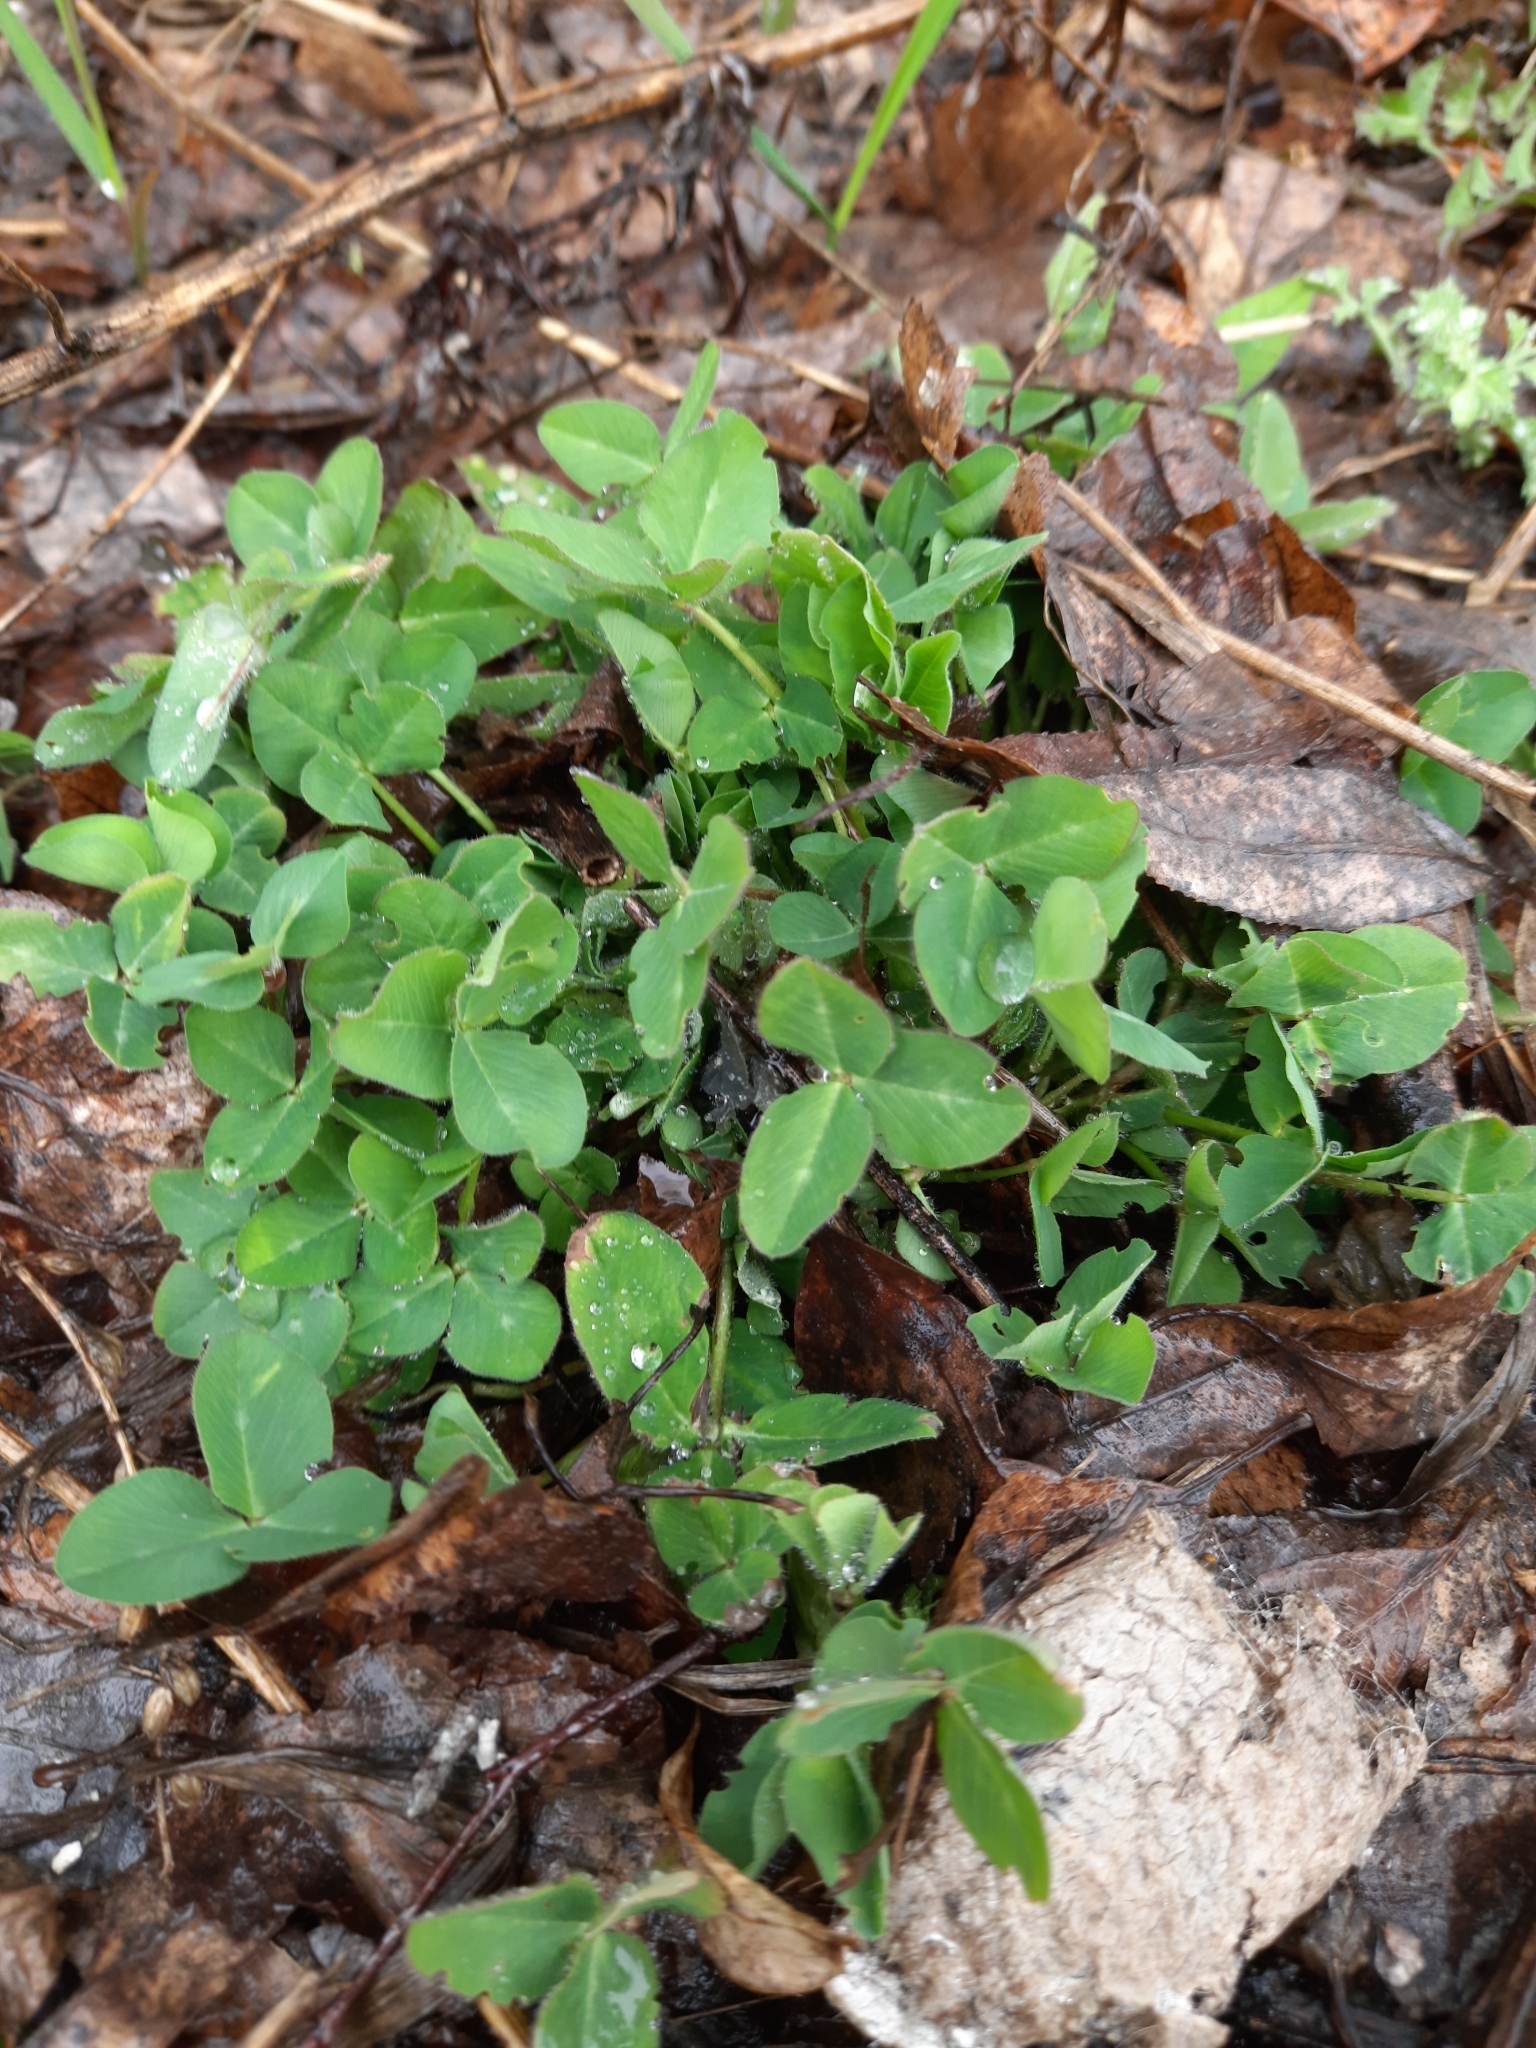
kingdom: Plantae
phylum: Tracheophyta
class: Magnoliopsida
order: Fabales
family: Fabaceae
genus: Trifolium
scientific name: Trifolium pratense
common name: Red clover
